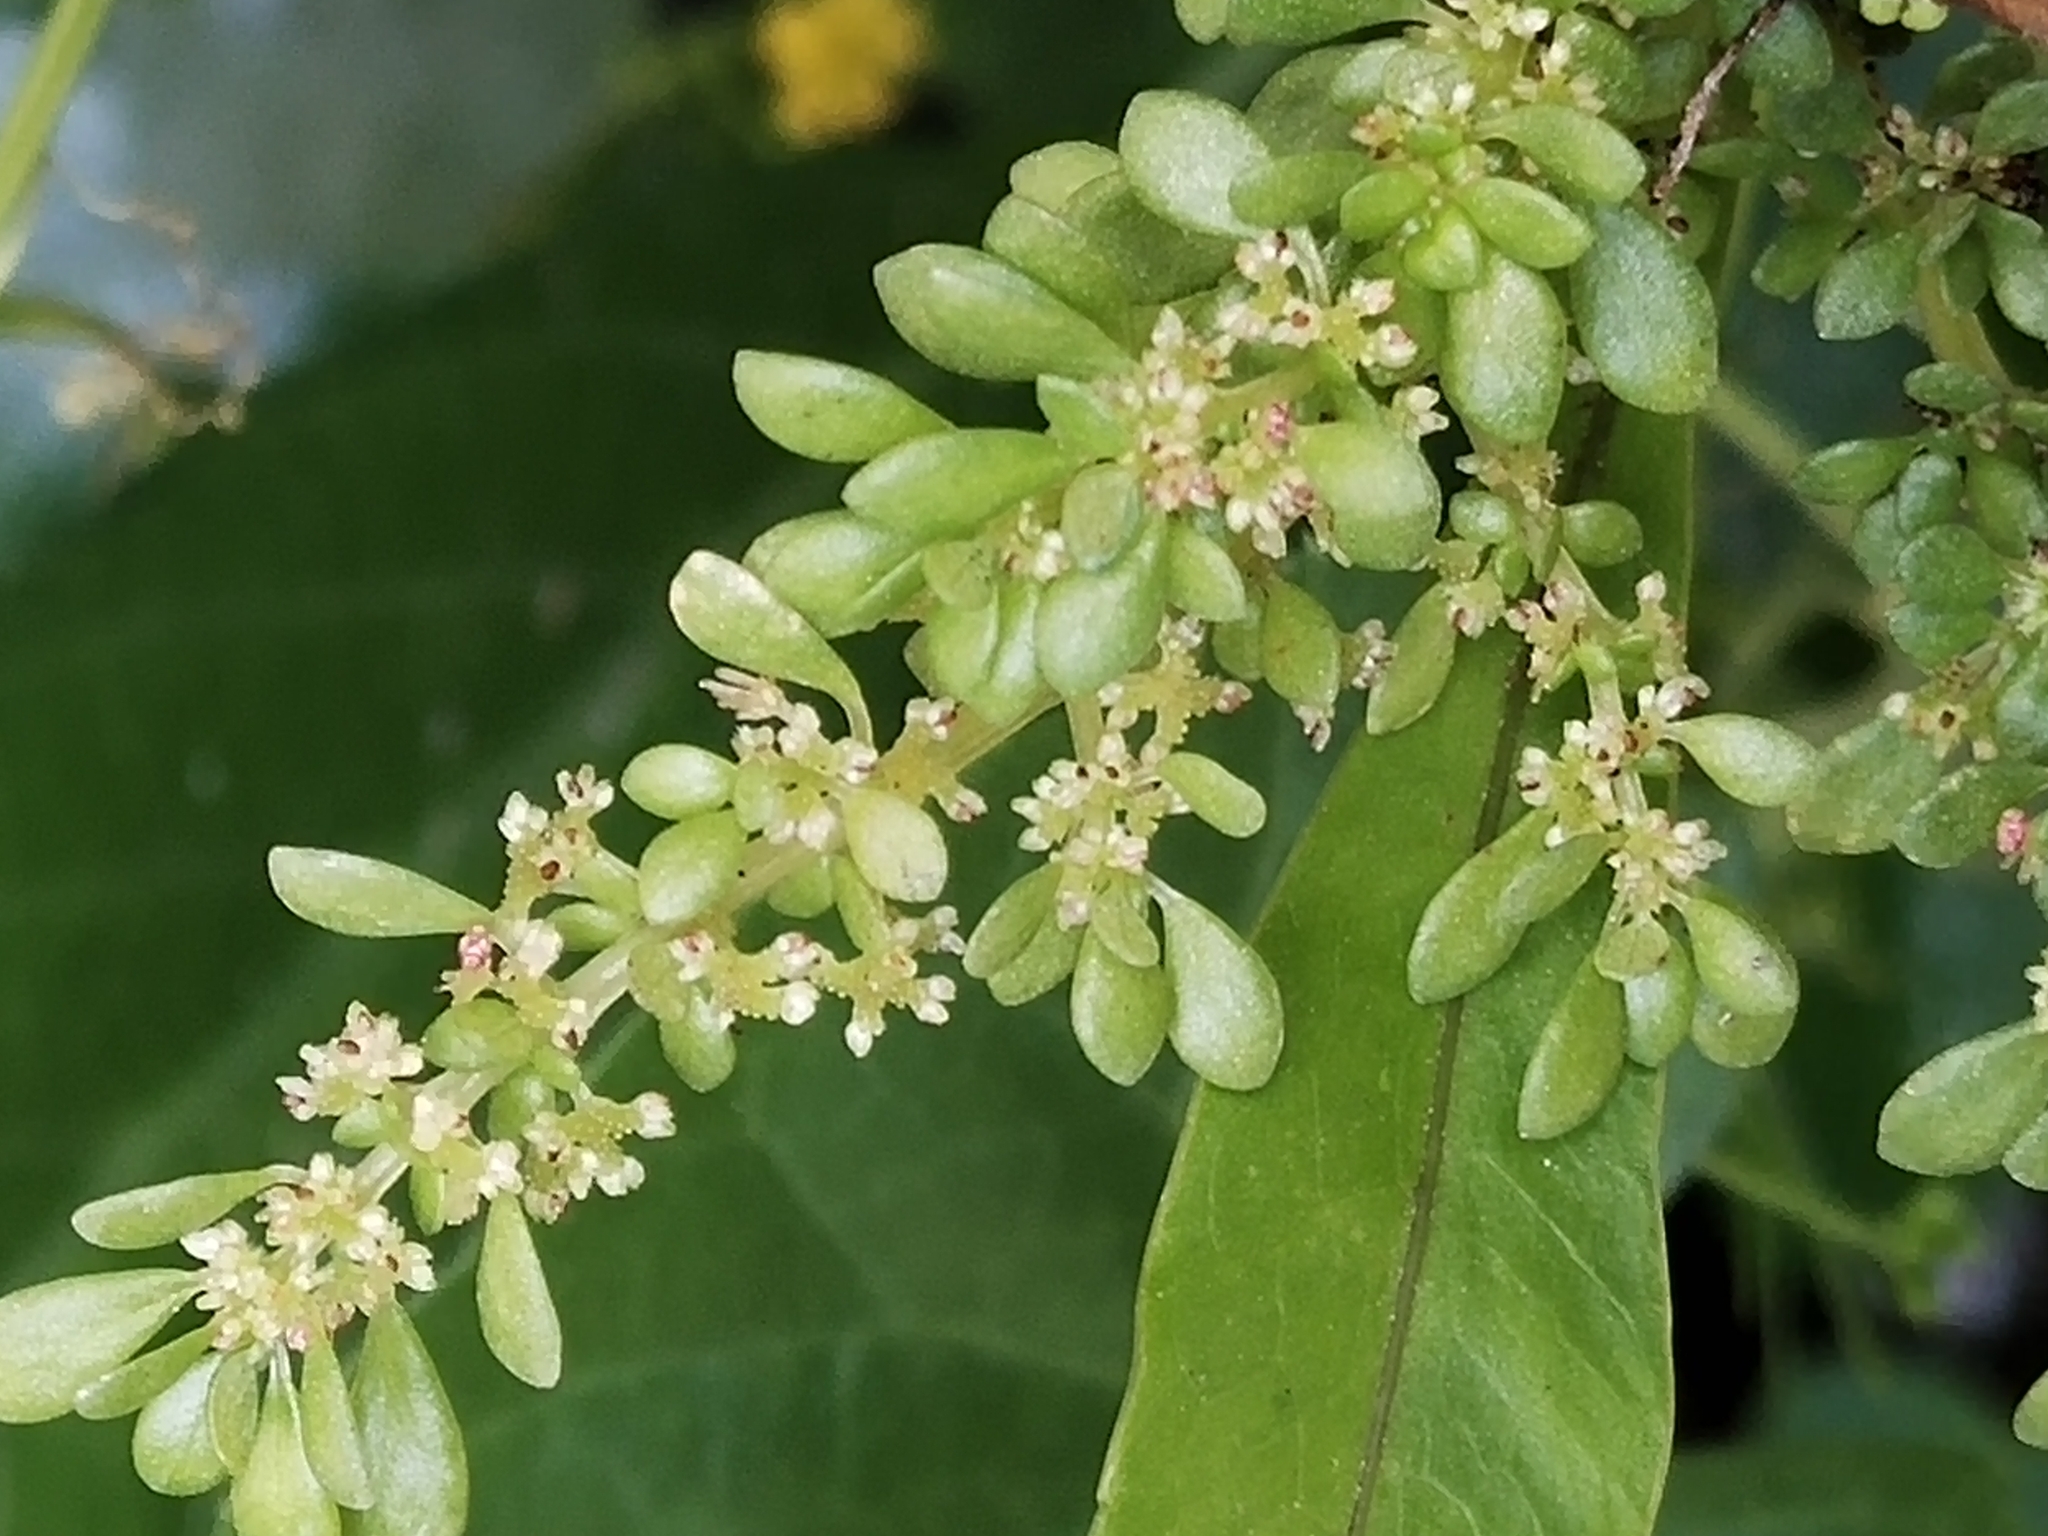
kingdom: Plantae
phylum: Tracheophyta
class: Magnoliopsida
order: Rosales
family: Urticaceae
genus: Pilea
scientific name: Pilea microphylla
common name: Artillery-plant
